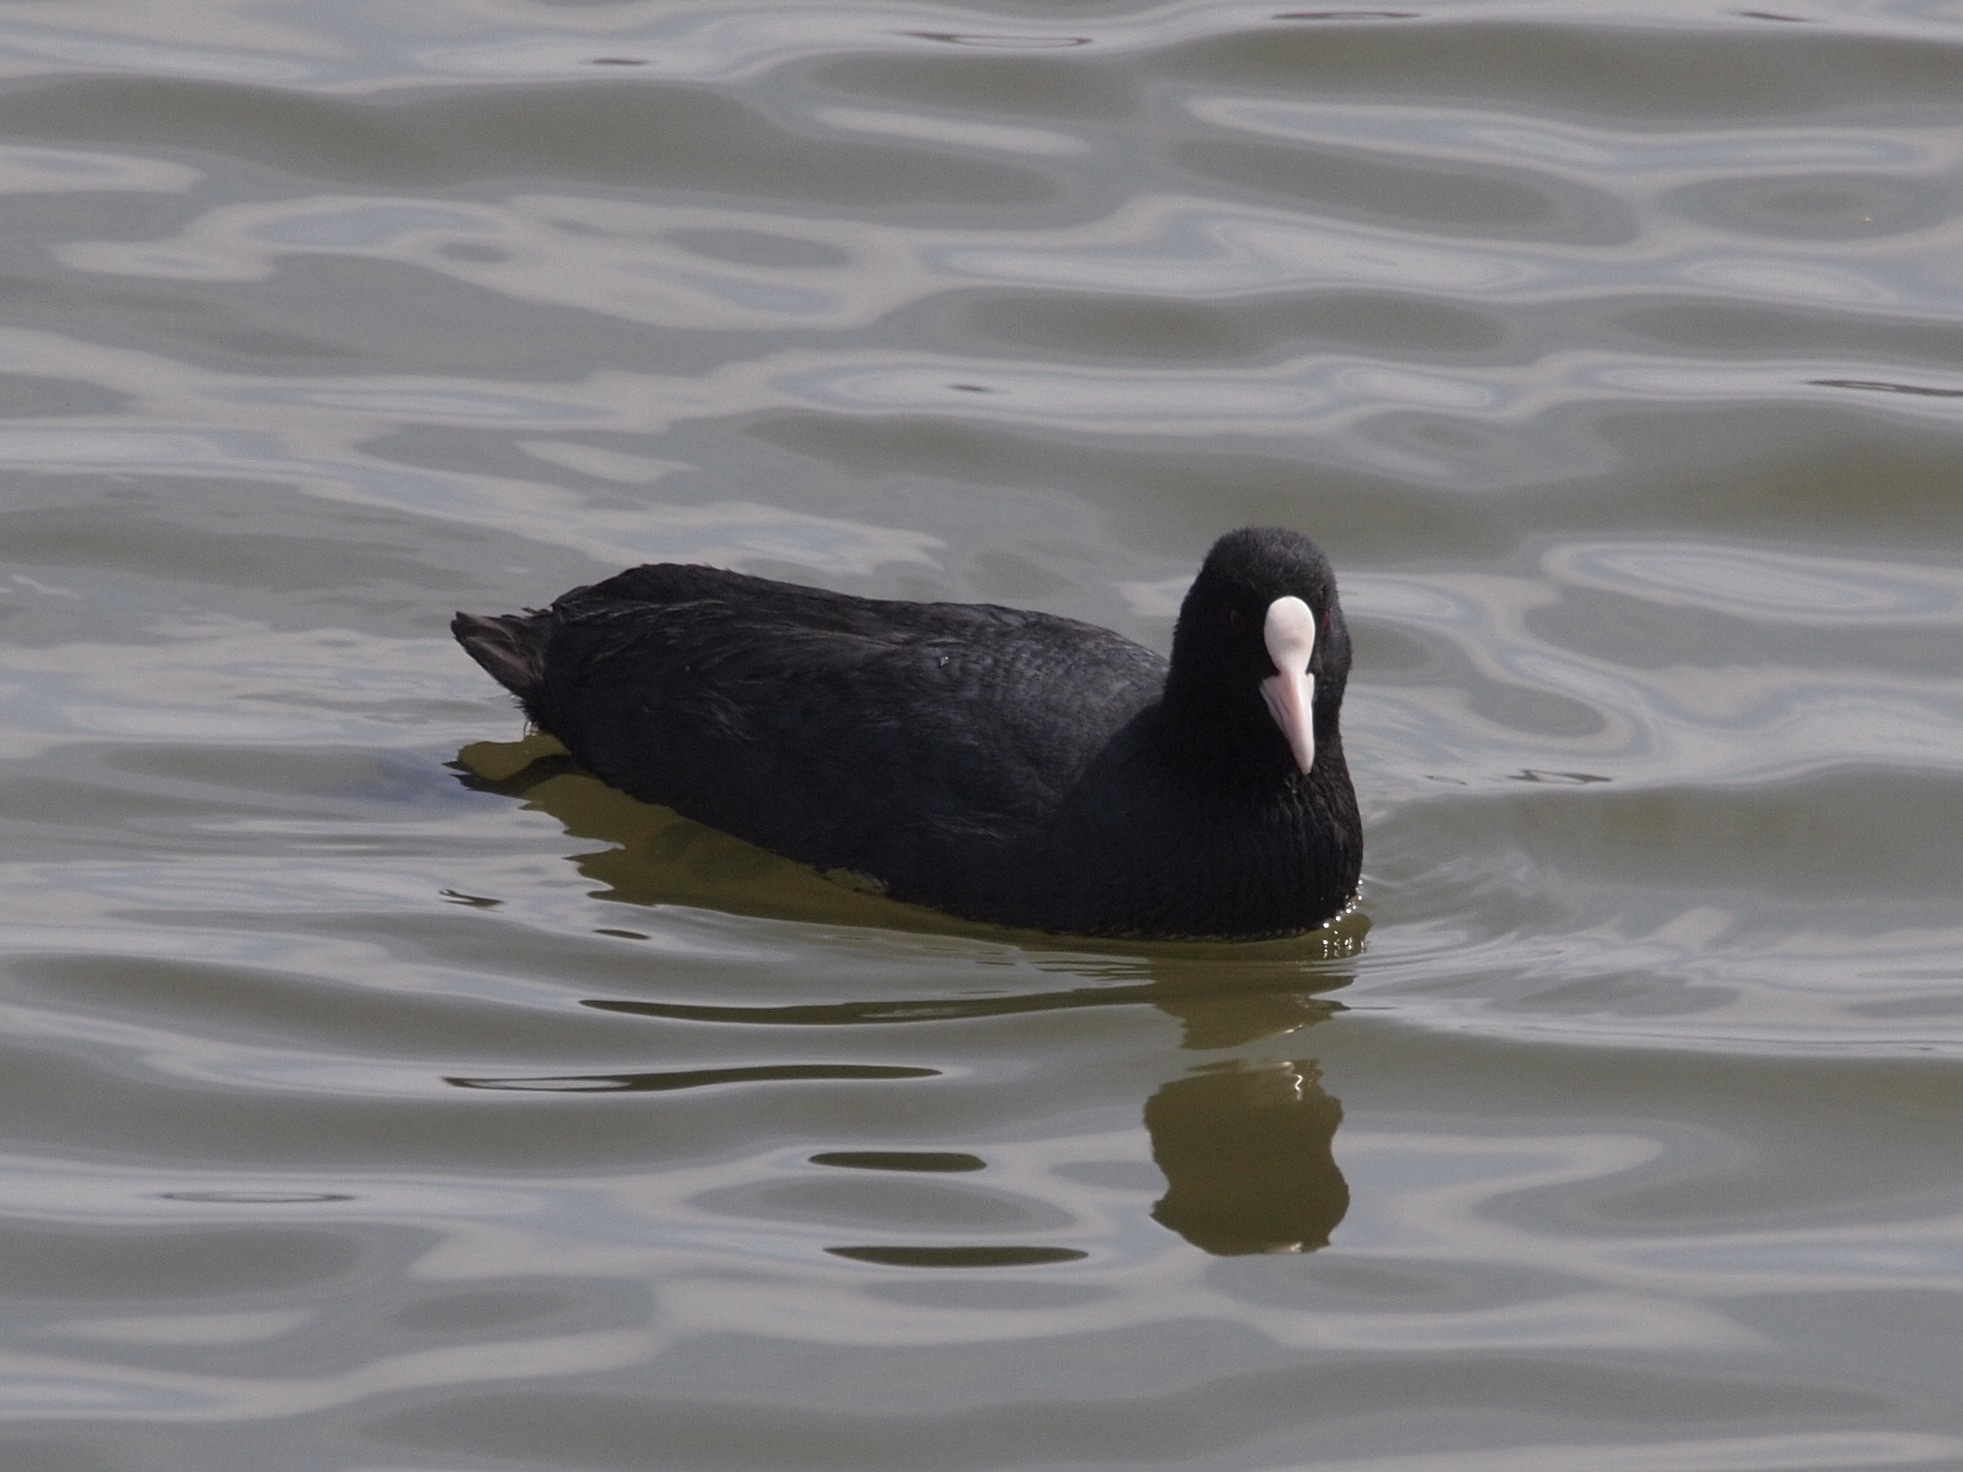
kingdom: Animalia
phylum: Chordata
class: Aves
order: Gruiformes
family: Rallidae
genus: Fulica
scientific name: Fulica atra
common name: Eurasian coot
